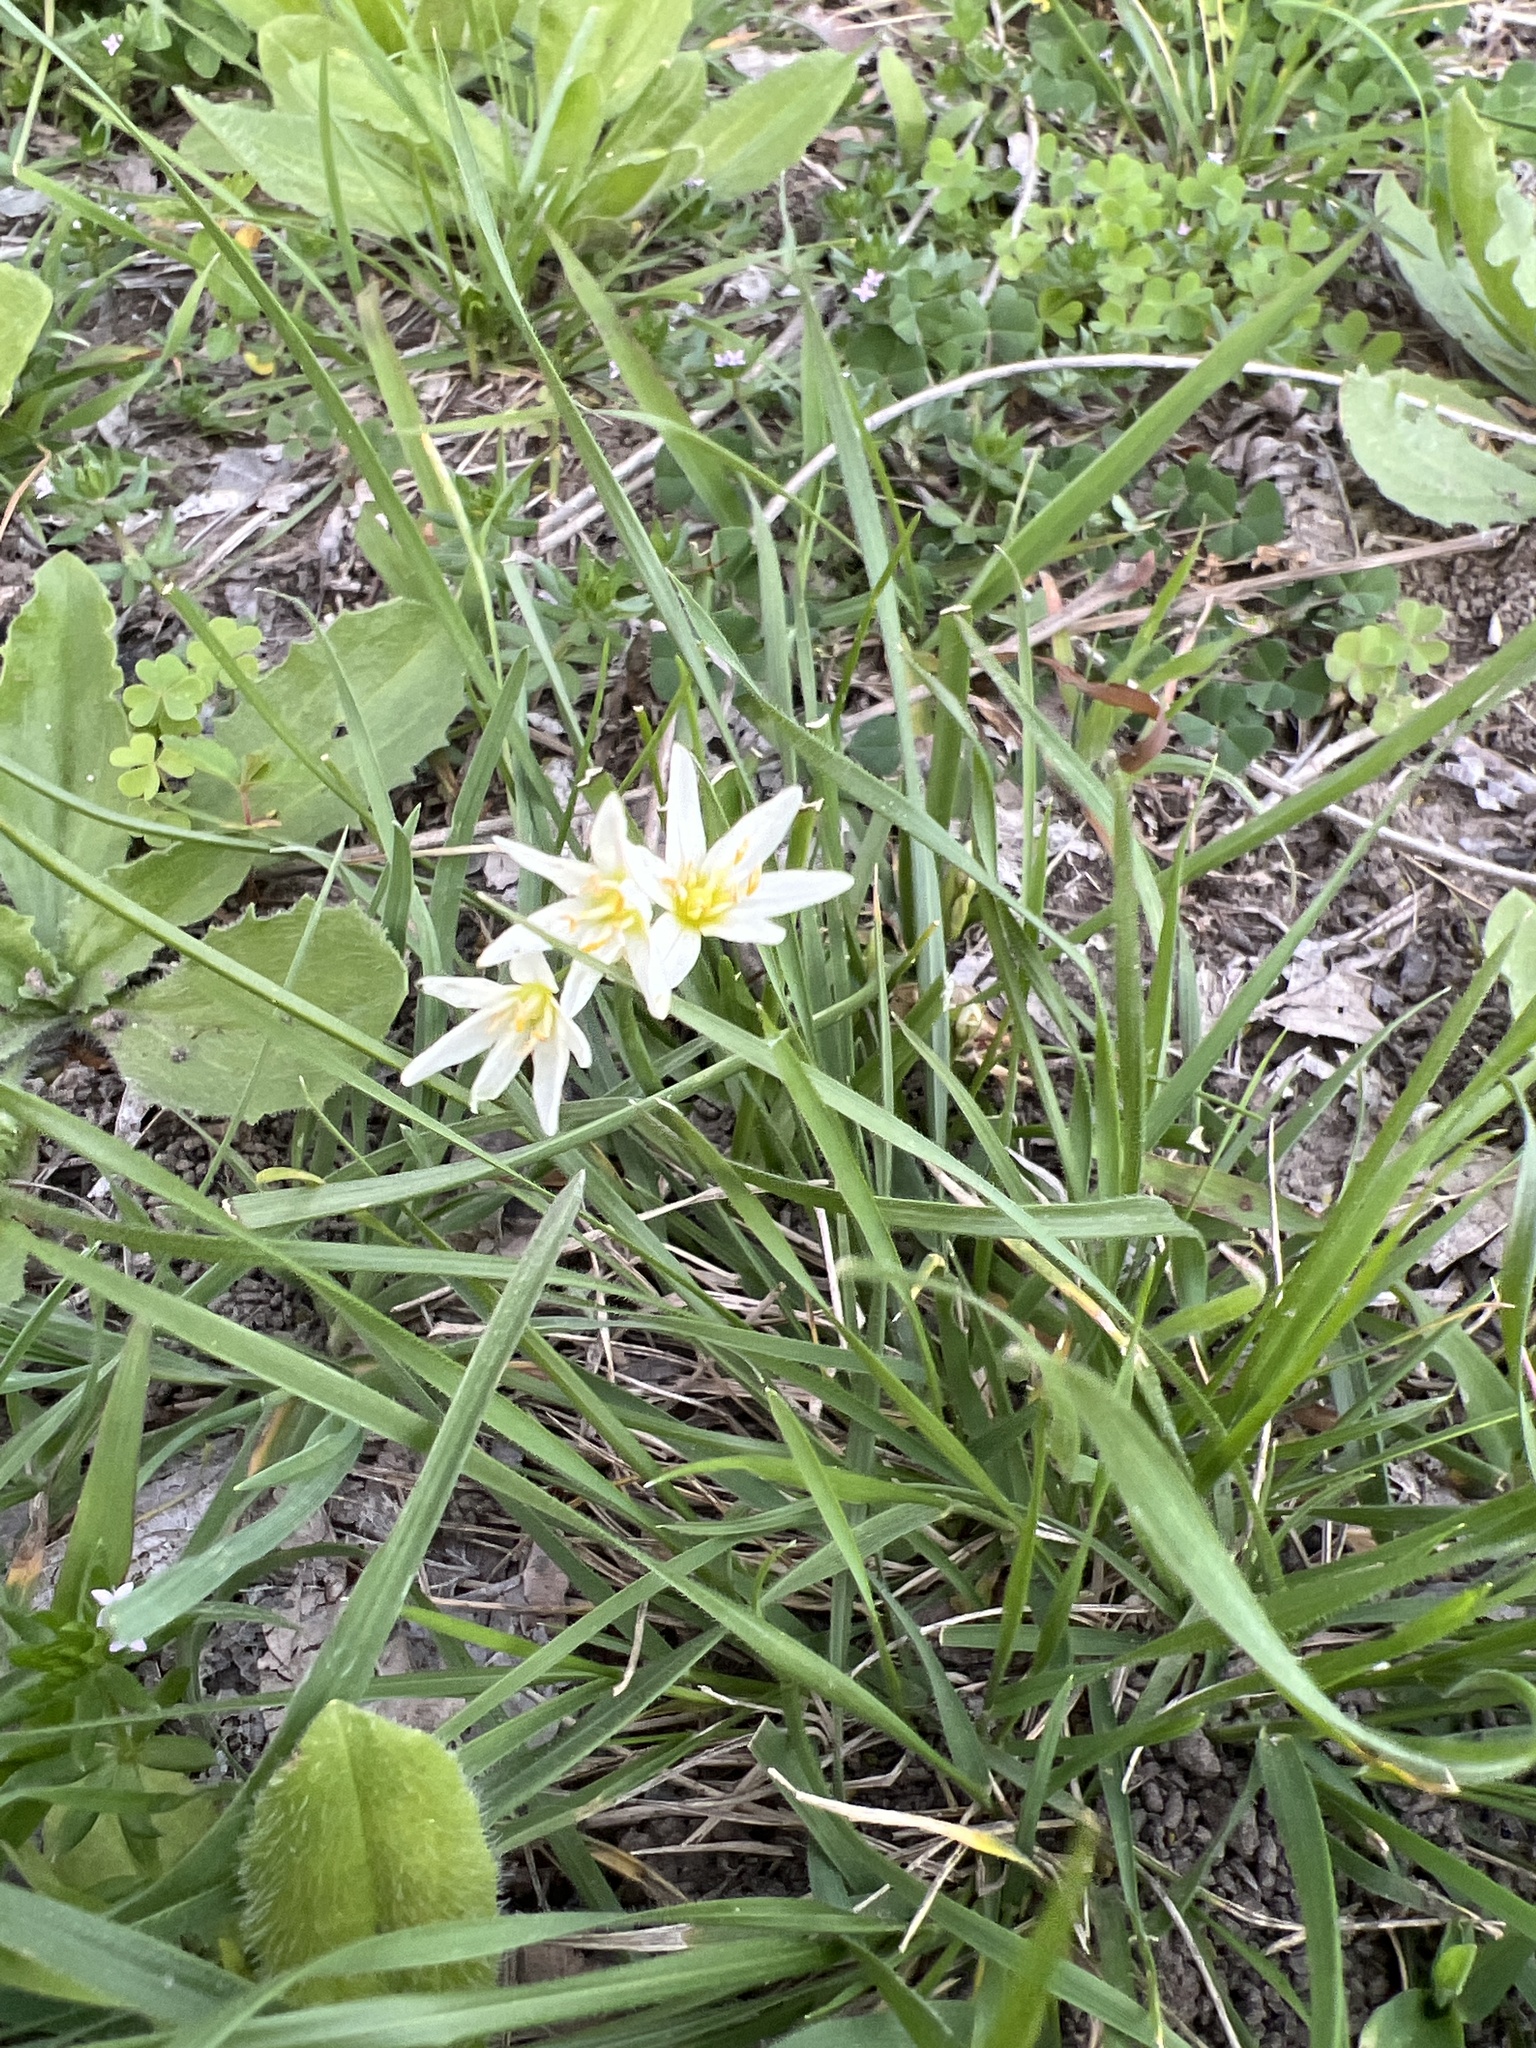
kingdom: Plantae
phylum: Tracheophyta
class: Liliopsida
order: Asparagales
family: Amaryllidaceae
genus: Nothoscordum
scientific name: Nothoscordum bivalve
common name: Crow-poison
